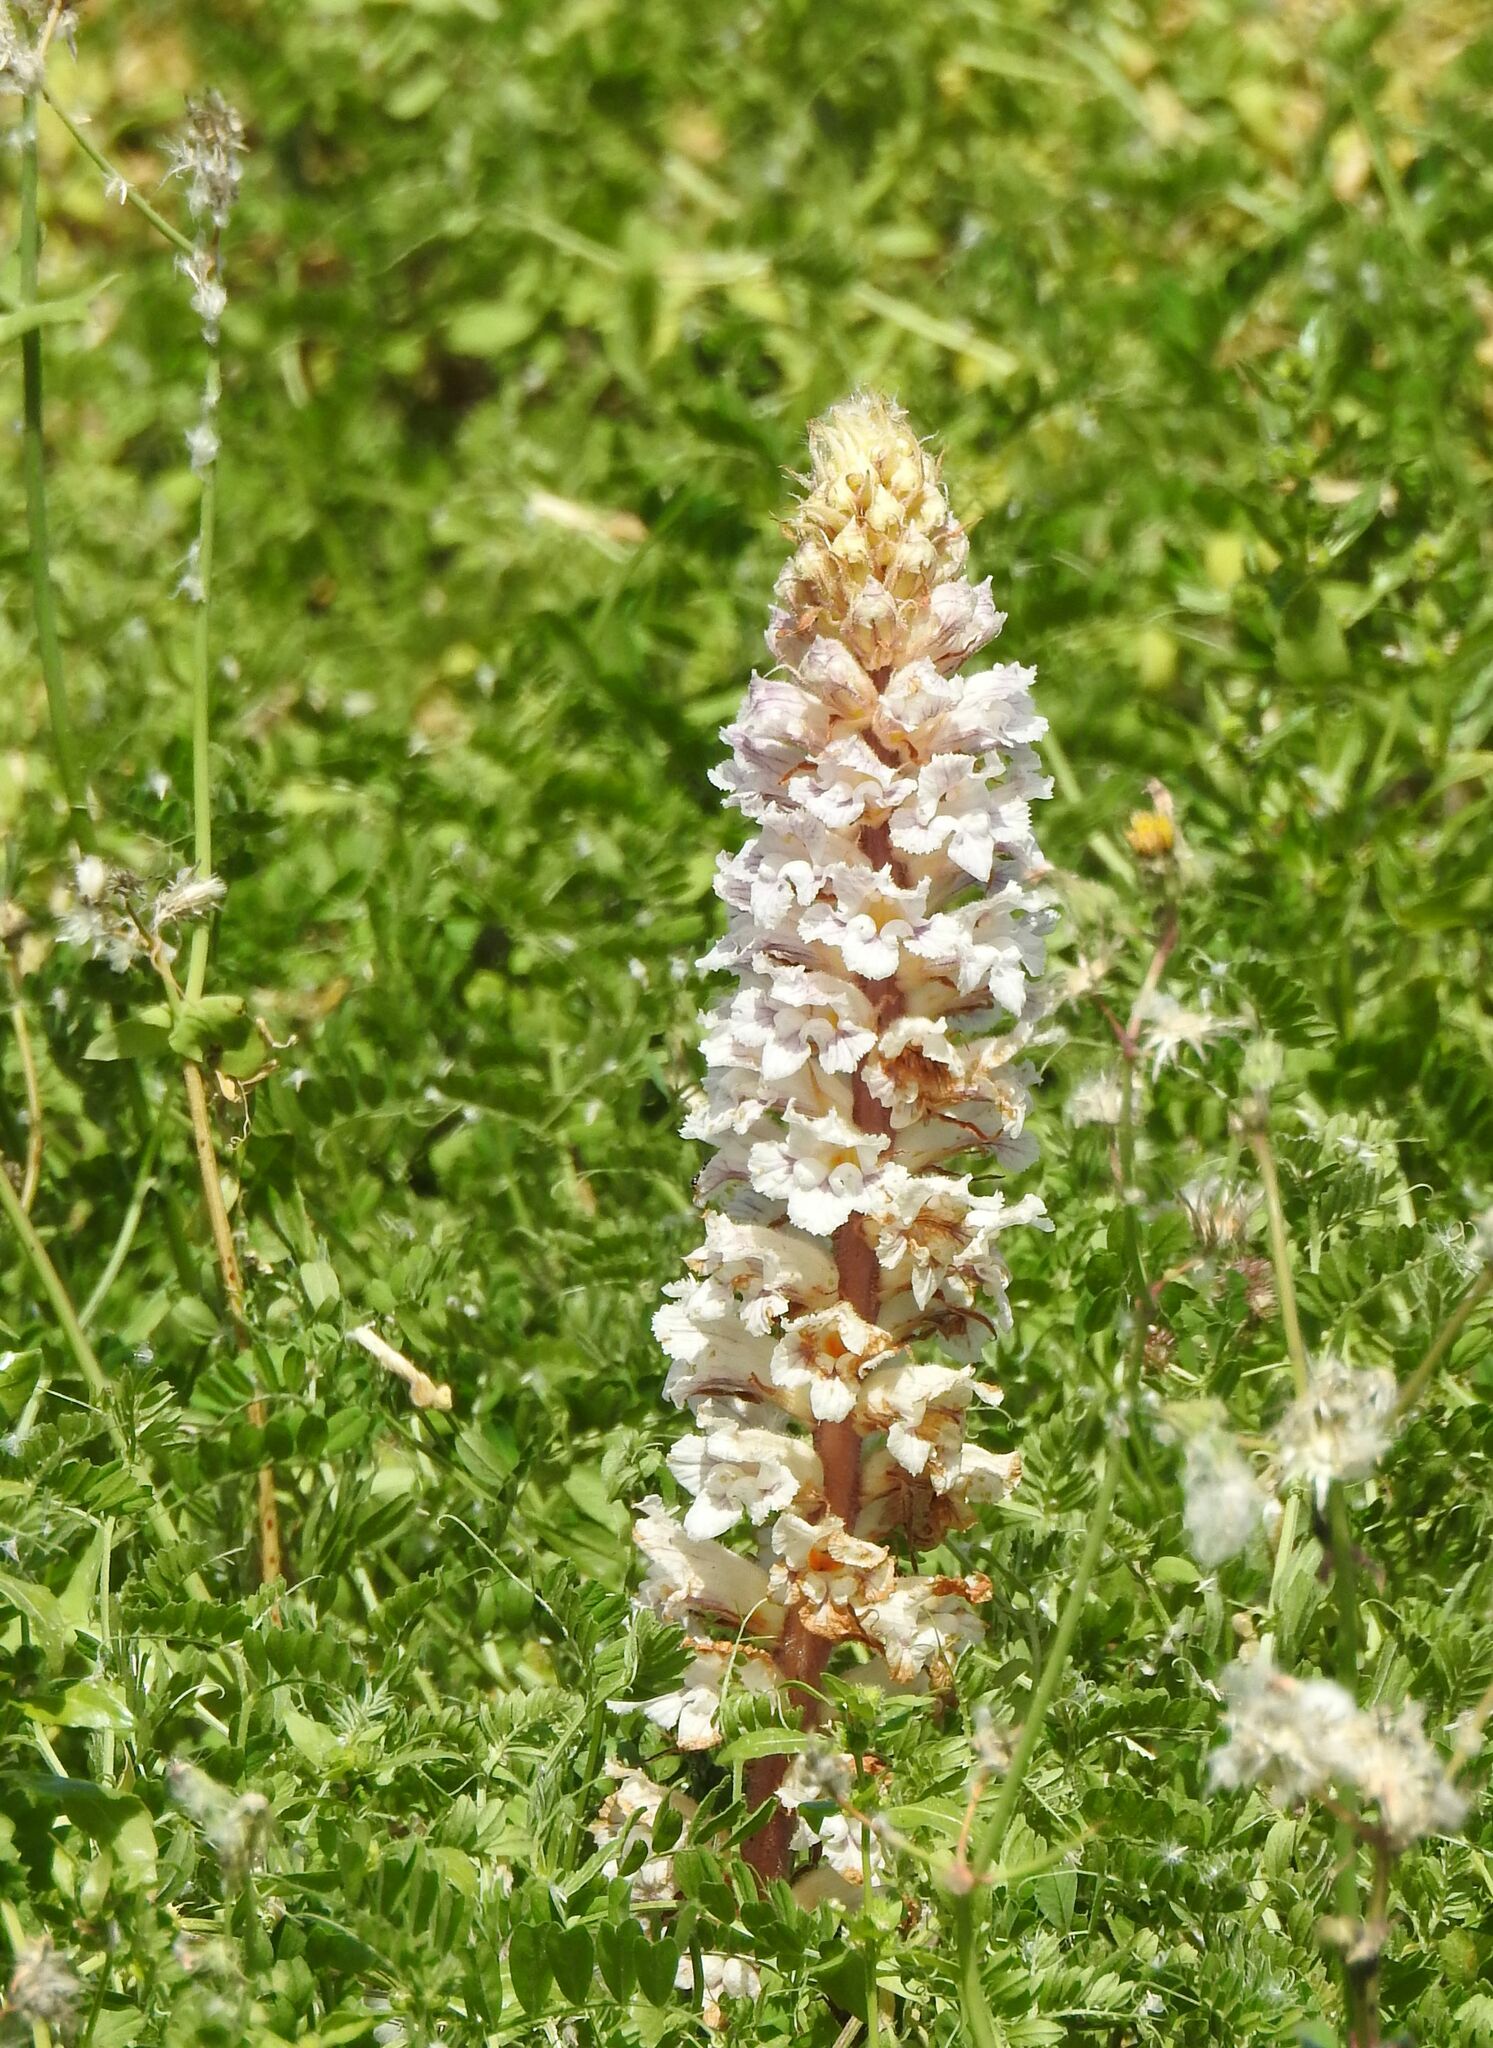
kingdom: Plantae
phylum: Tracheophyta
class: Magnoliopsida
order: Lamiales
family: Orobanchaceae
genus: Orobanche
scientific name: Orobanche crenata
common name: Bean broomrape
